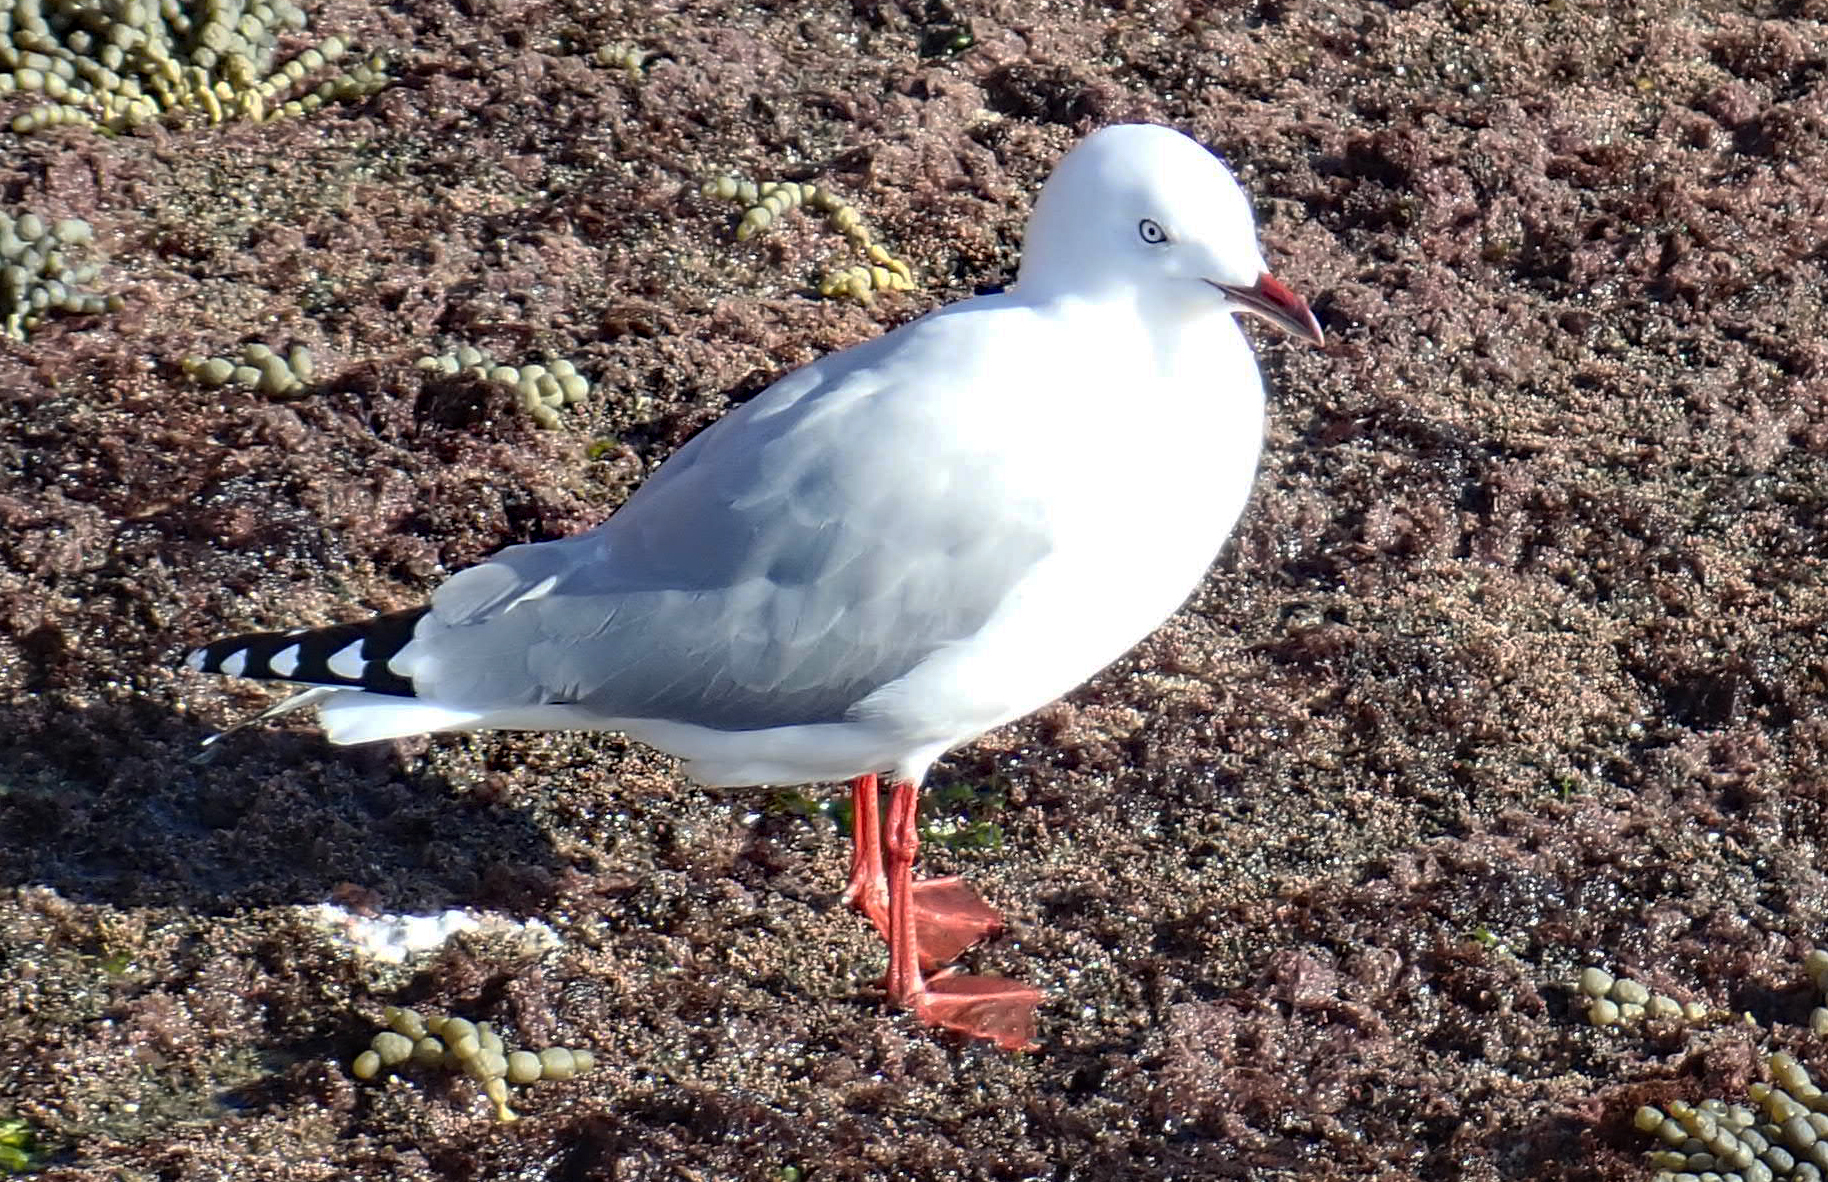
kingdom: Animalia
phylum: Chordata
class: Aves
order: Charadriiformes
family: Laridae
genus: Chroicocephalus
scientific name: Chroicocephalus novaehollandiae
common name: Silver gull
